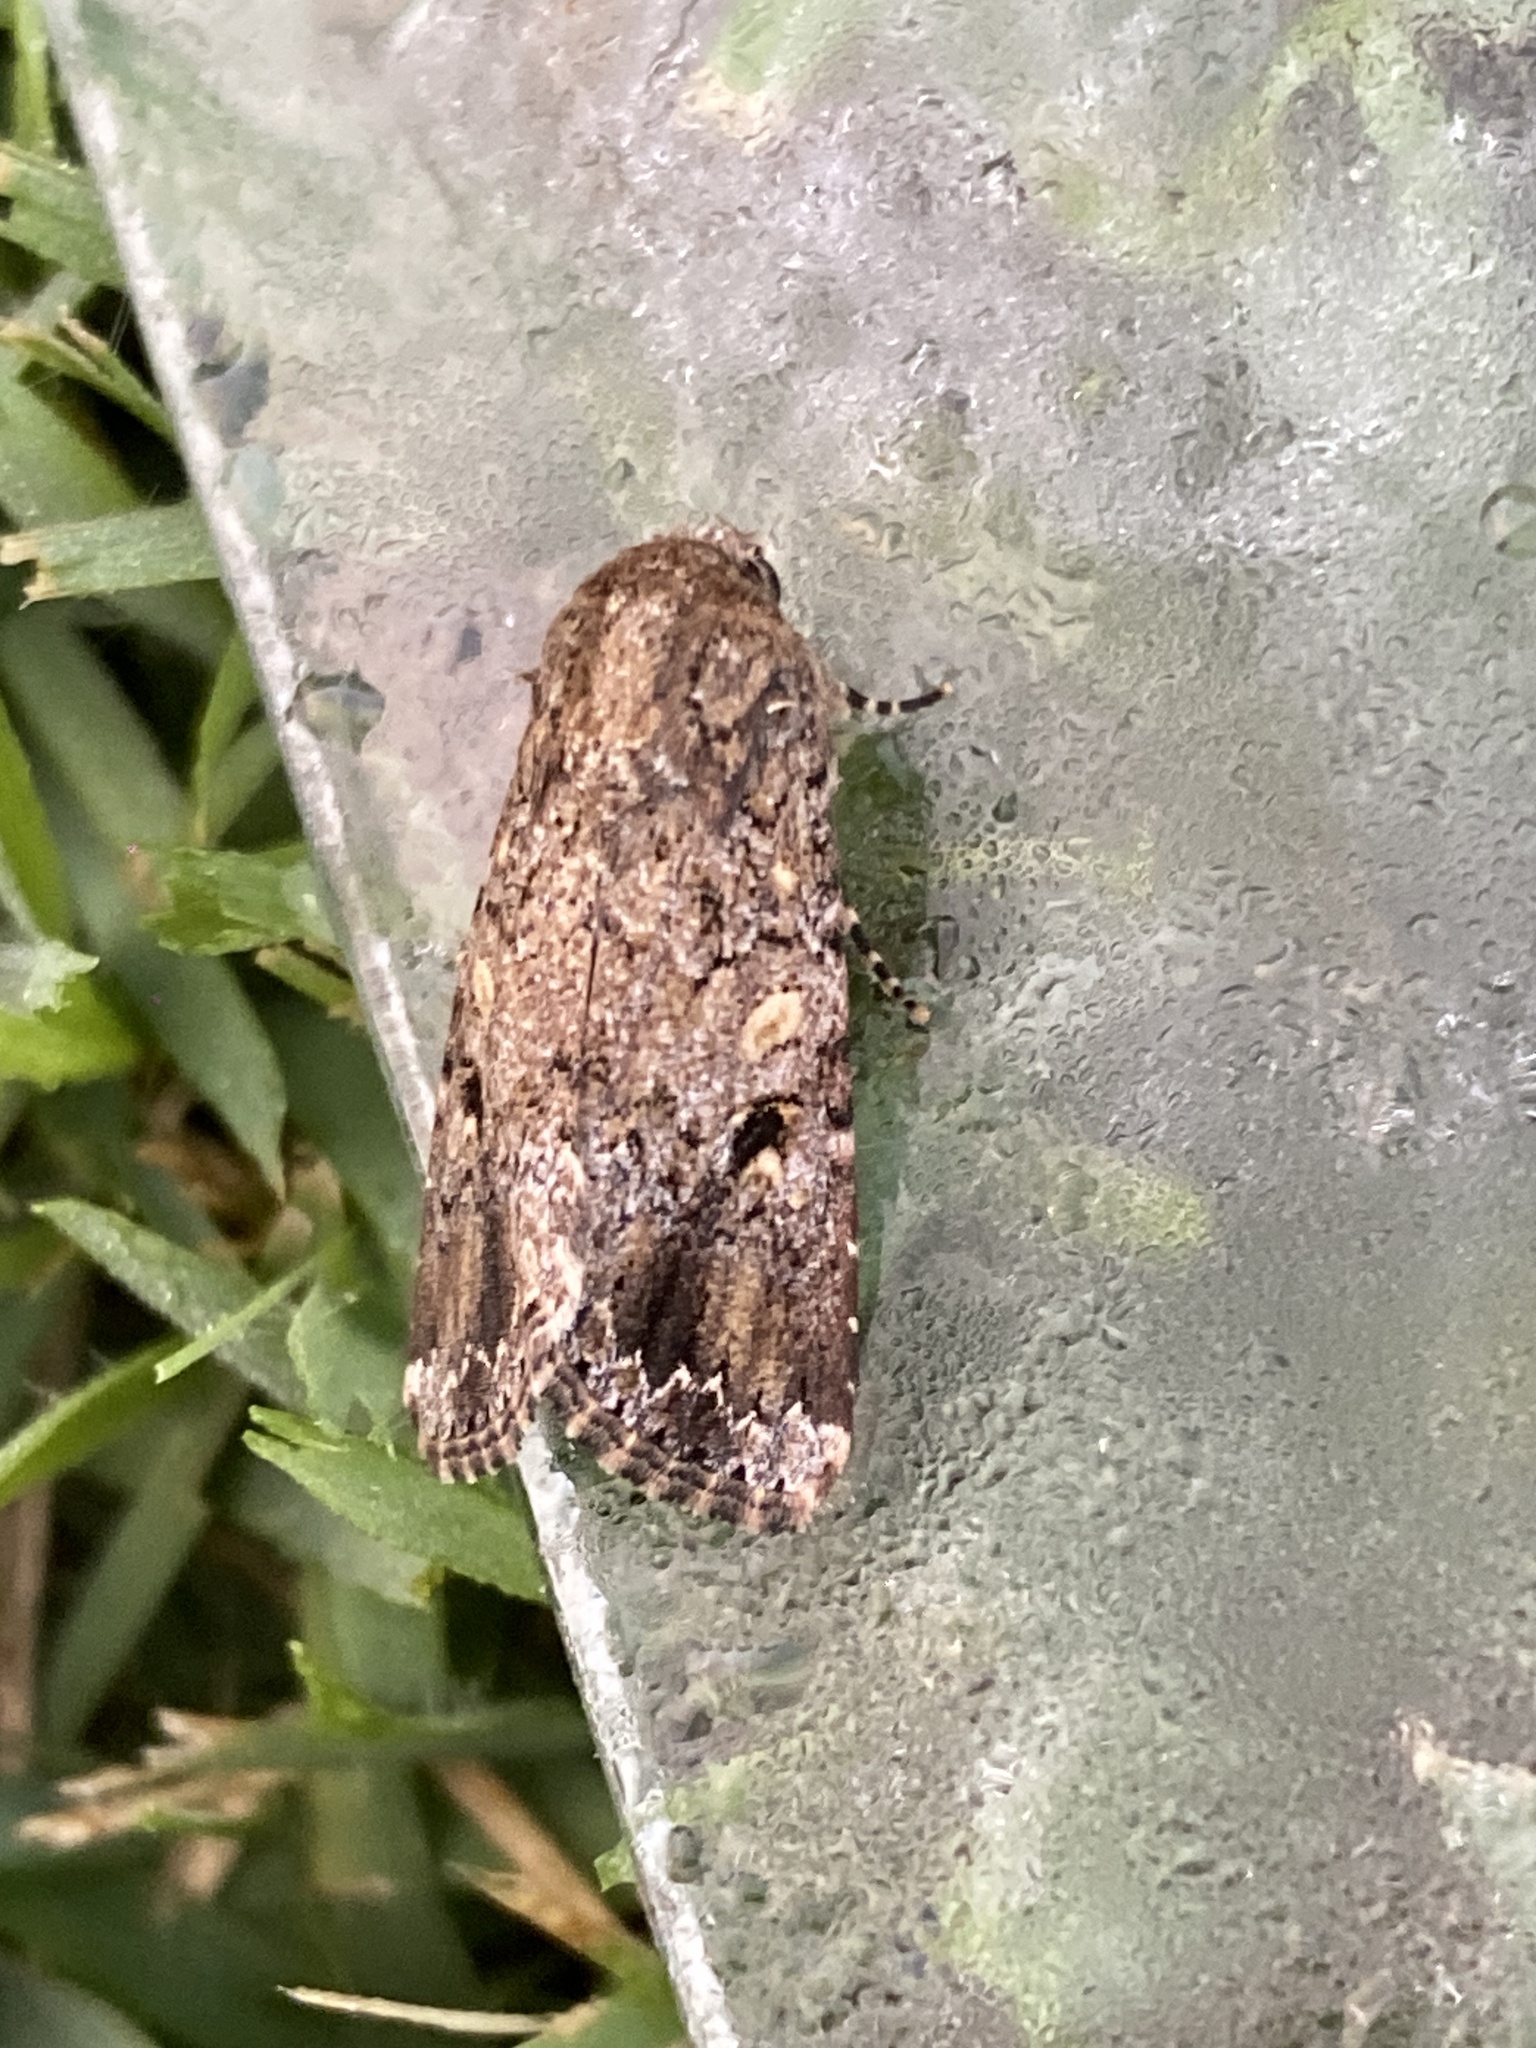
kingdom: Animalia
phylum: Arthropoda
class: Insecta
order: Lepidoptera
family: Noctuidae
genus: Spodoptera
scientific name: Spodoptera mauritia
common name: Lawn armyworm
